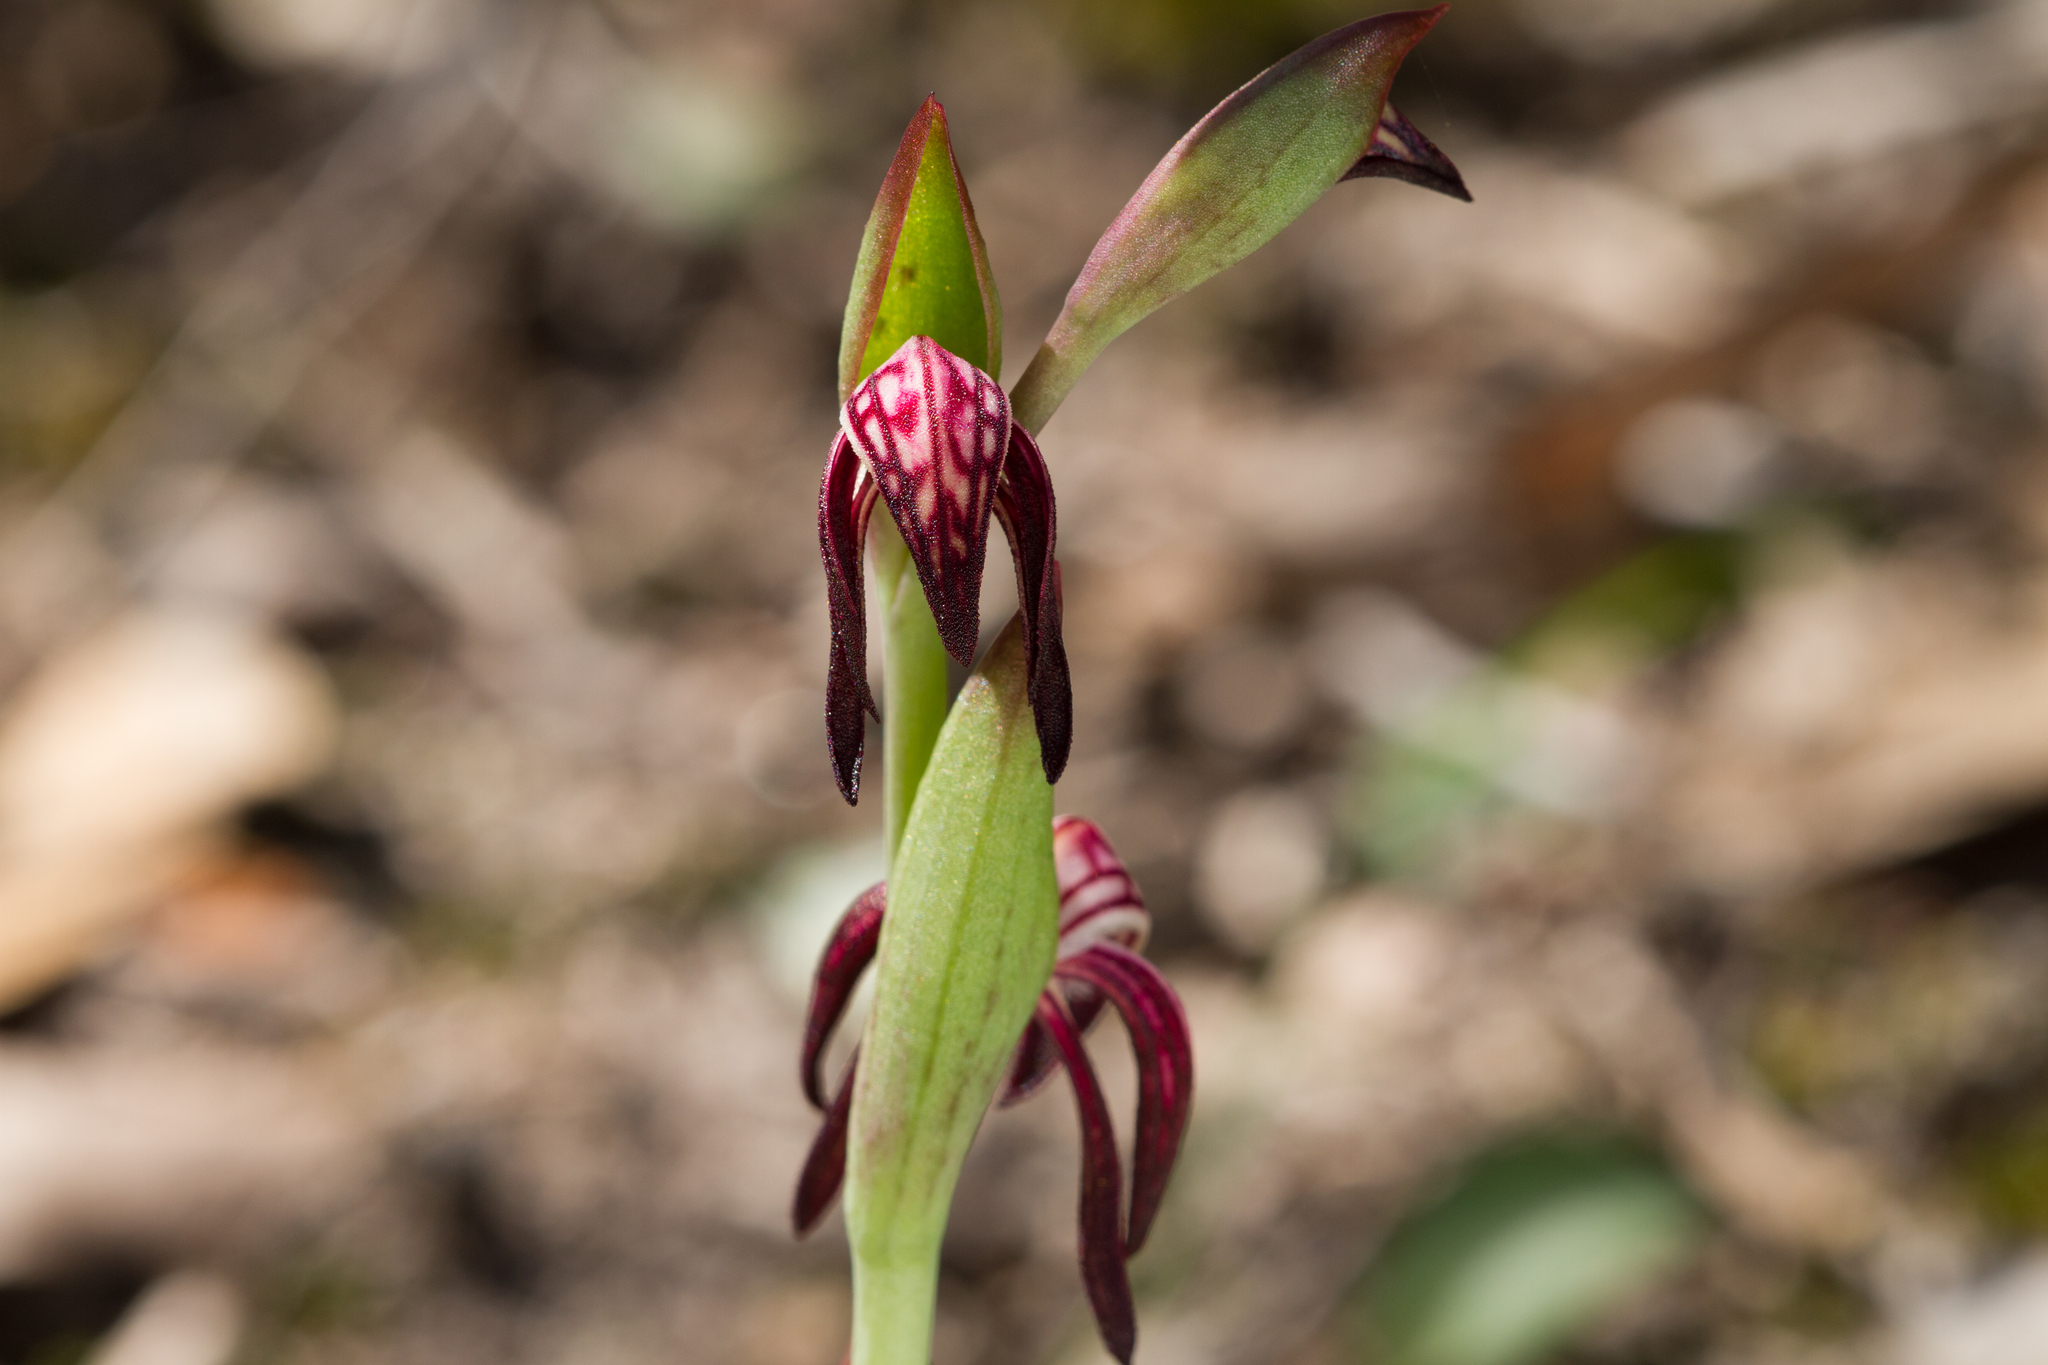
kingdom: Plantae
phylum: Tracheophyta
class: Liliopsida
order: Asparagales
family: Orchidaceae
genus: Pyrorchis
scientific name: Pyrorchis nigricans
